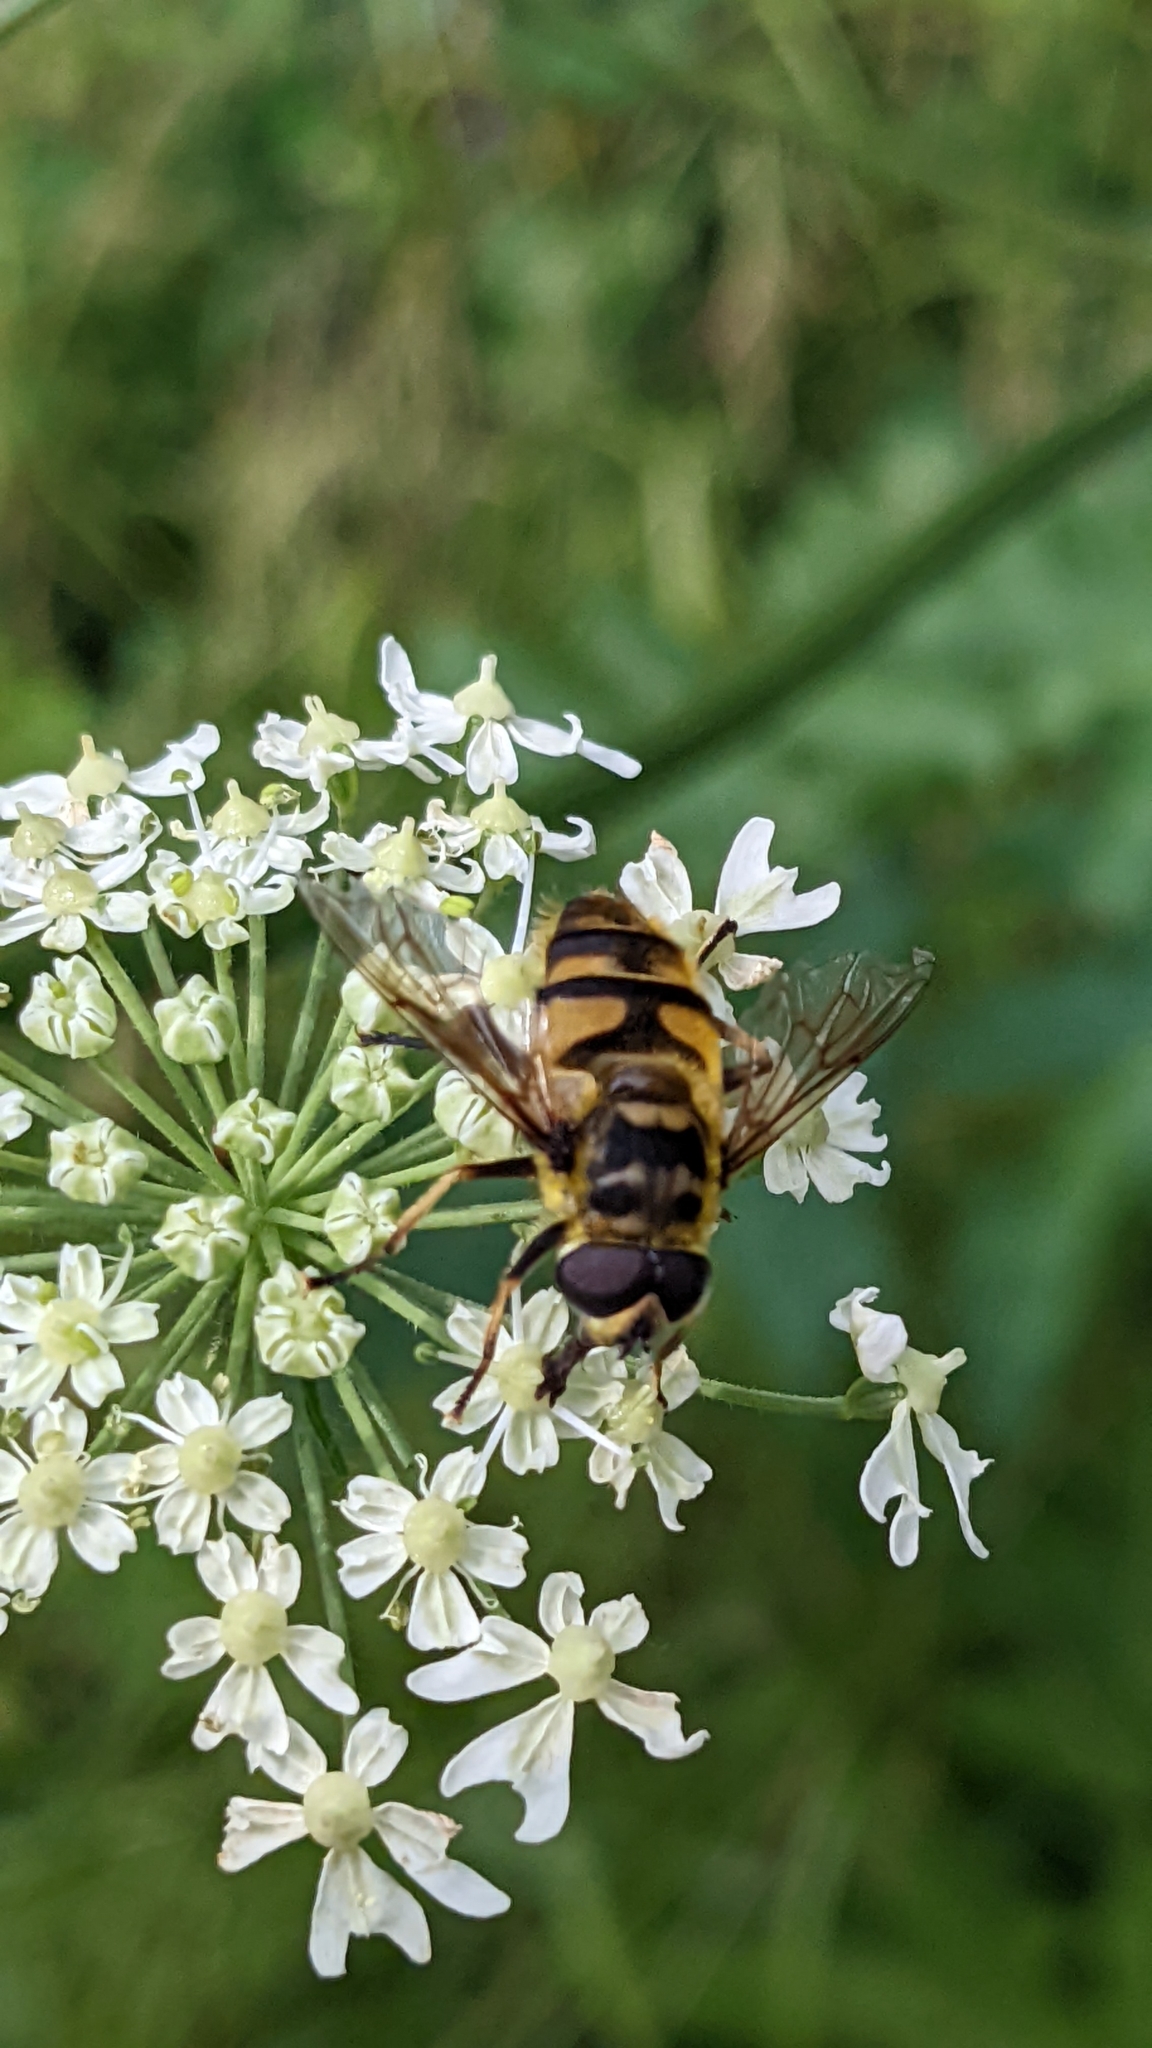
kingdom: Animalia
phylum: Arthropoda
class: Insecta
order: Diptera
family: Syrphidae
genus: Myathropa
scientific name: Myathropa florea
